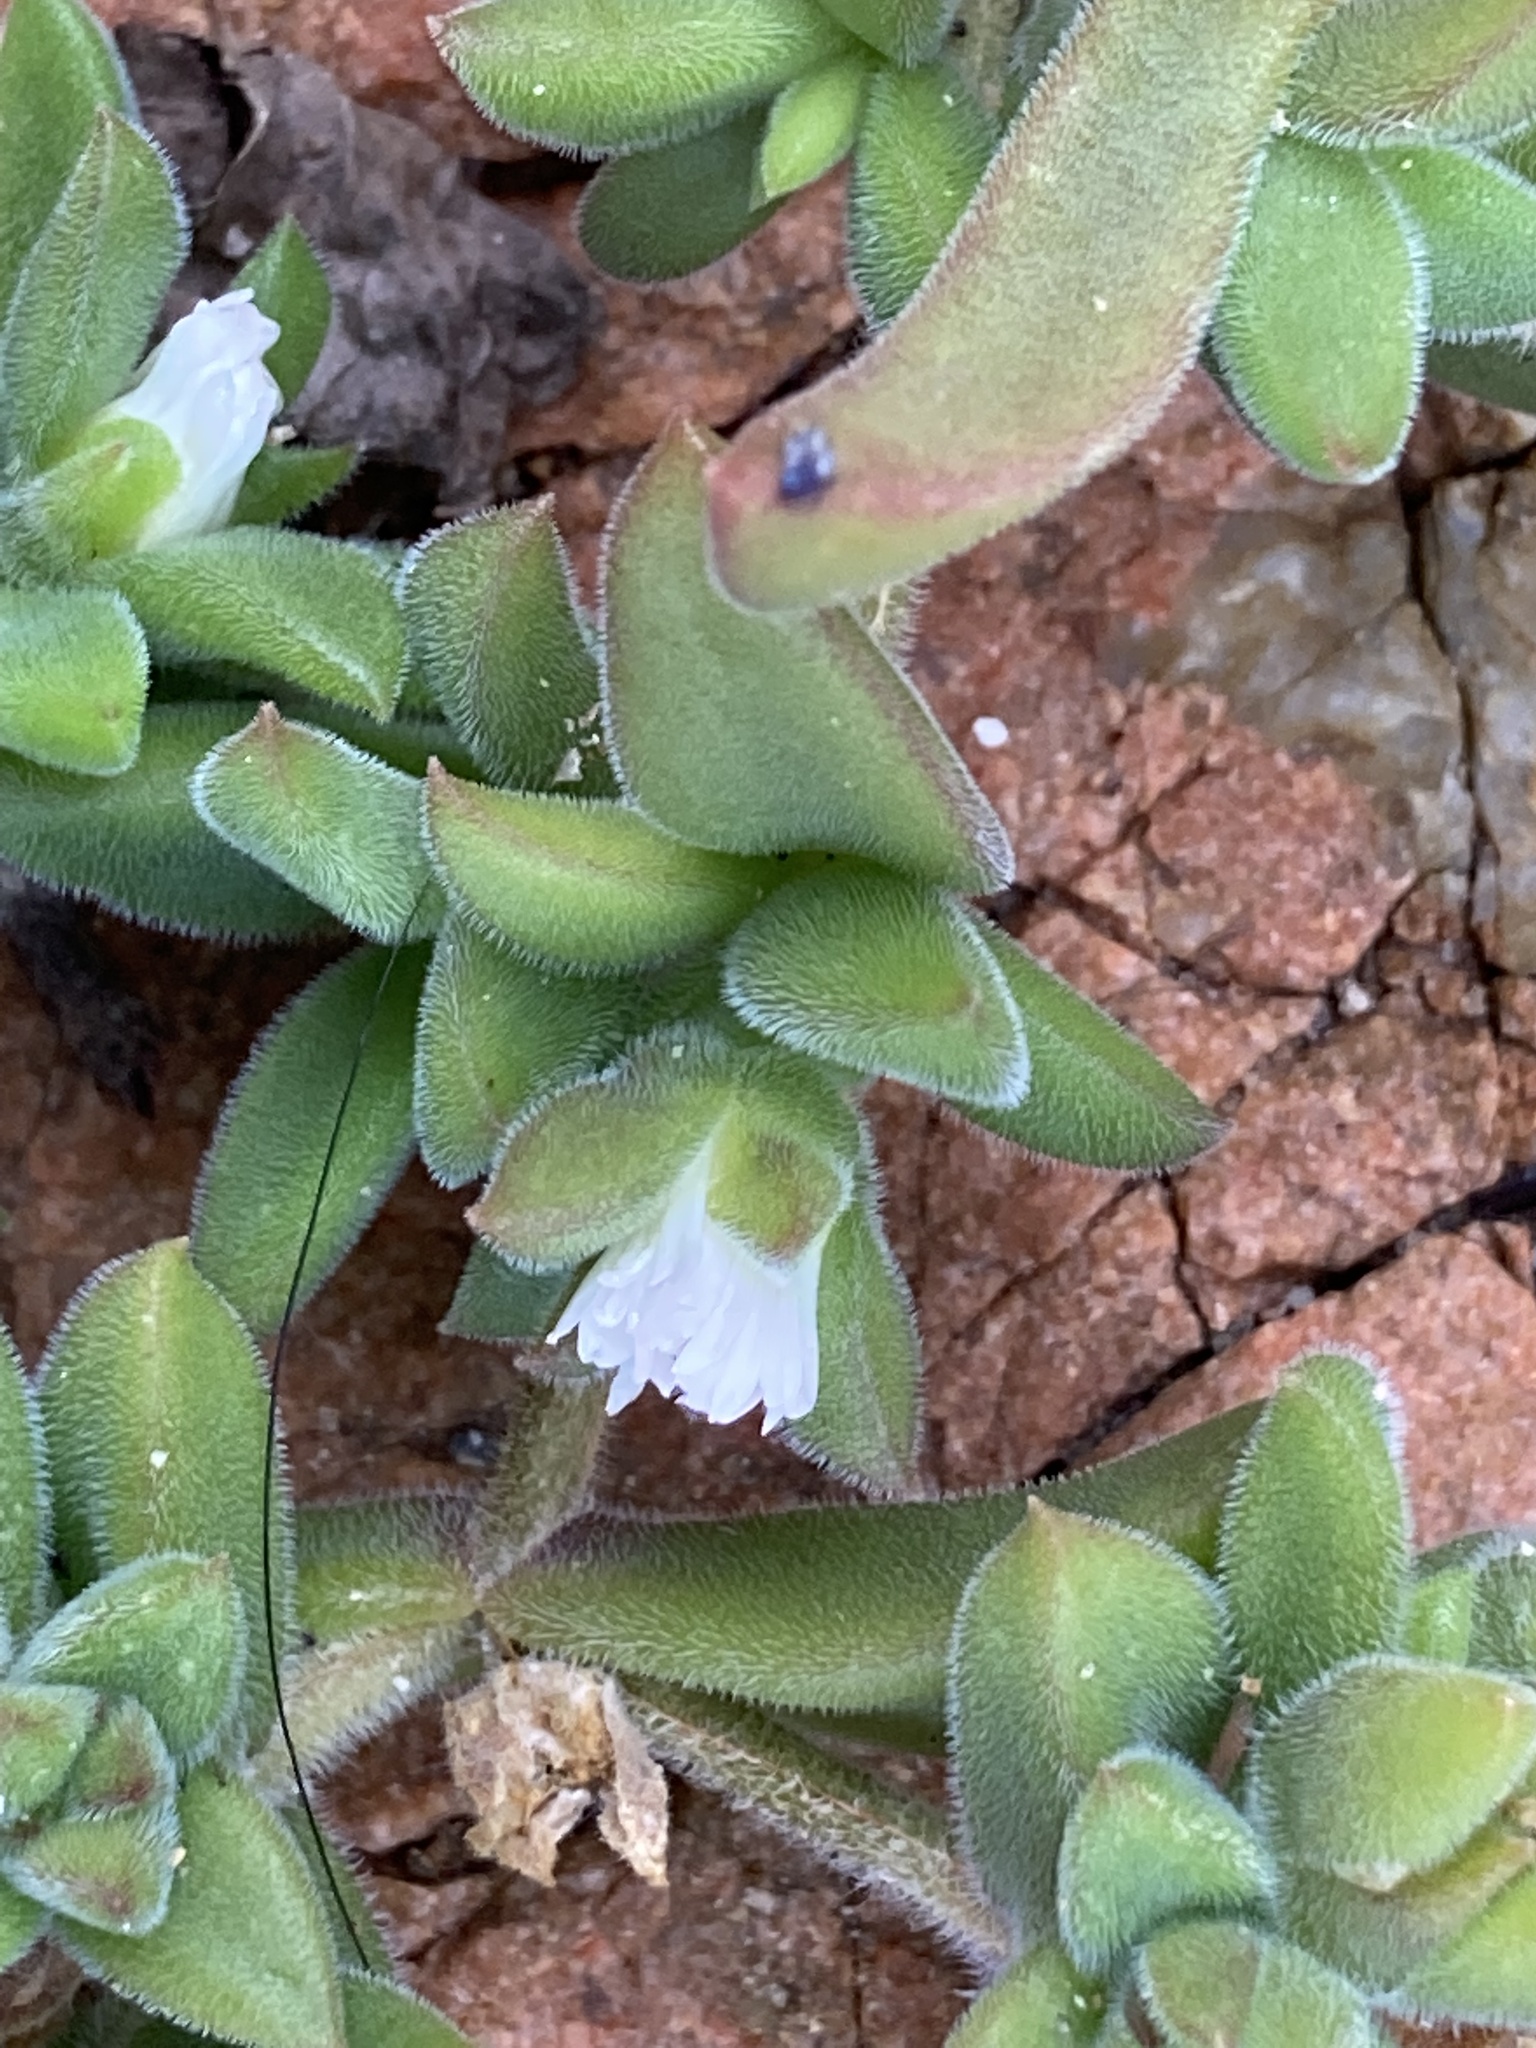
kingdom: Plantae
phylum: Tracheophyta
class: Magnoliopsida
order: Caryophyllales
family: Aizoaceae
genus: Delosperma
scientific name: Delosperma invalidum
